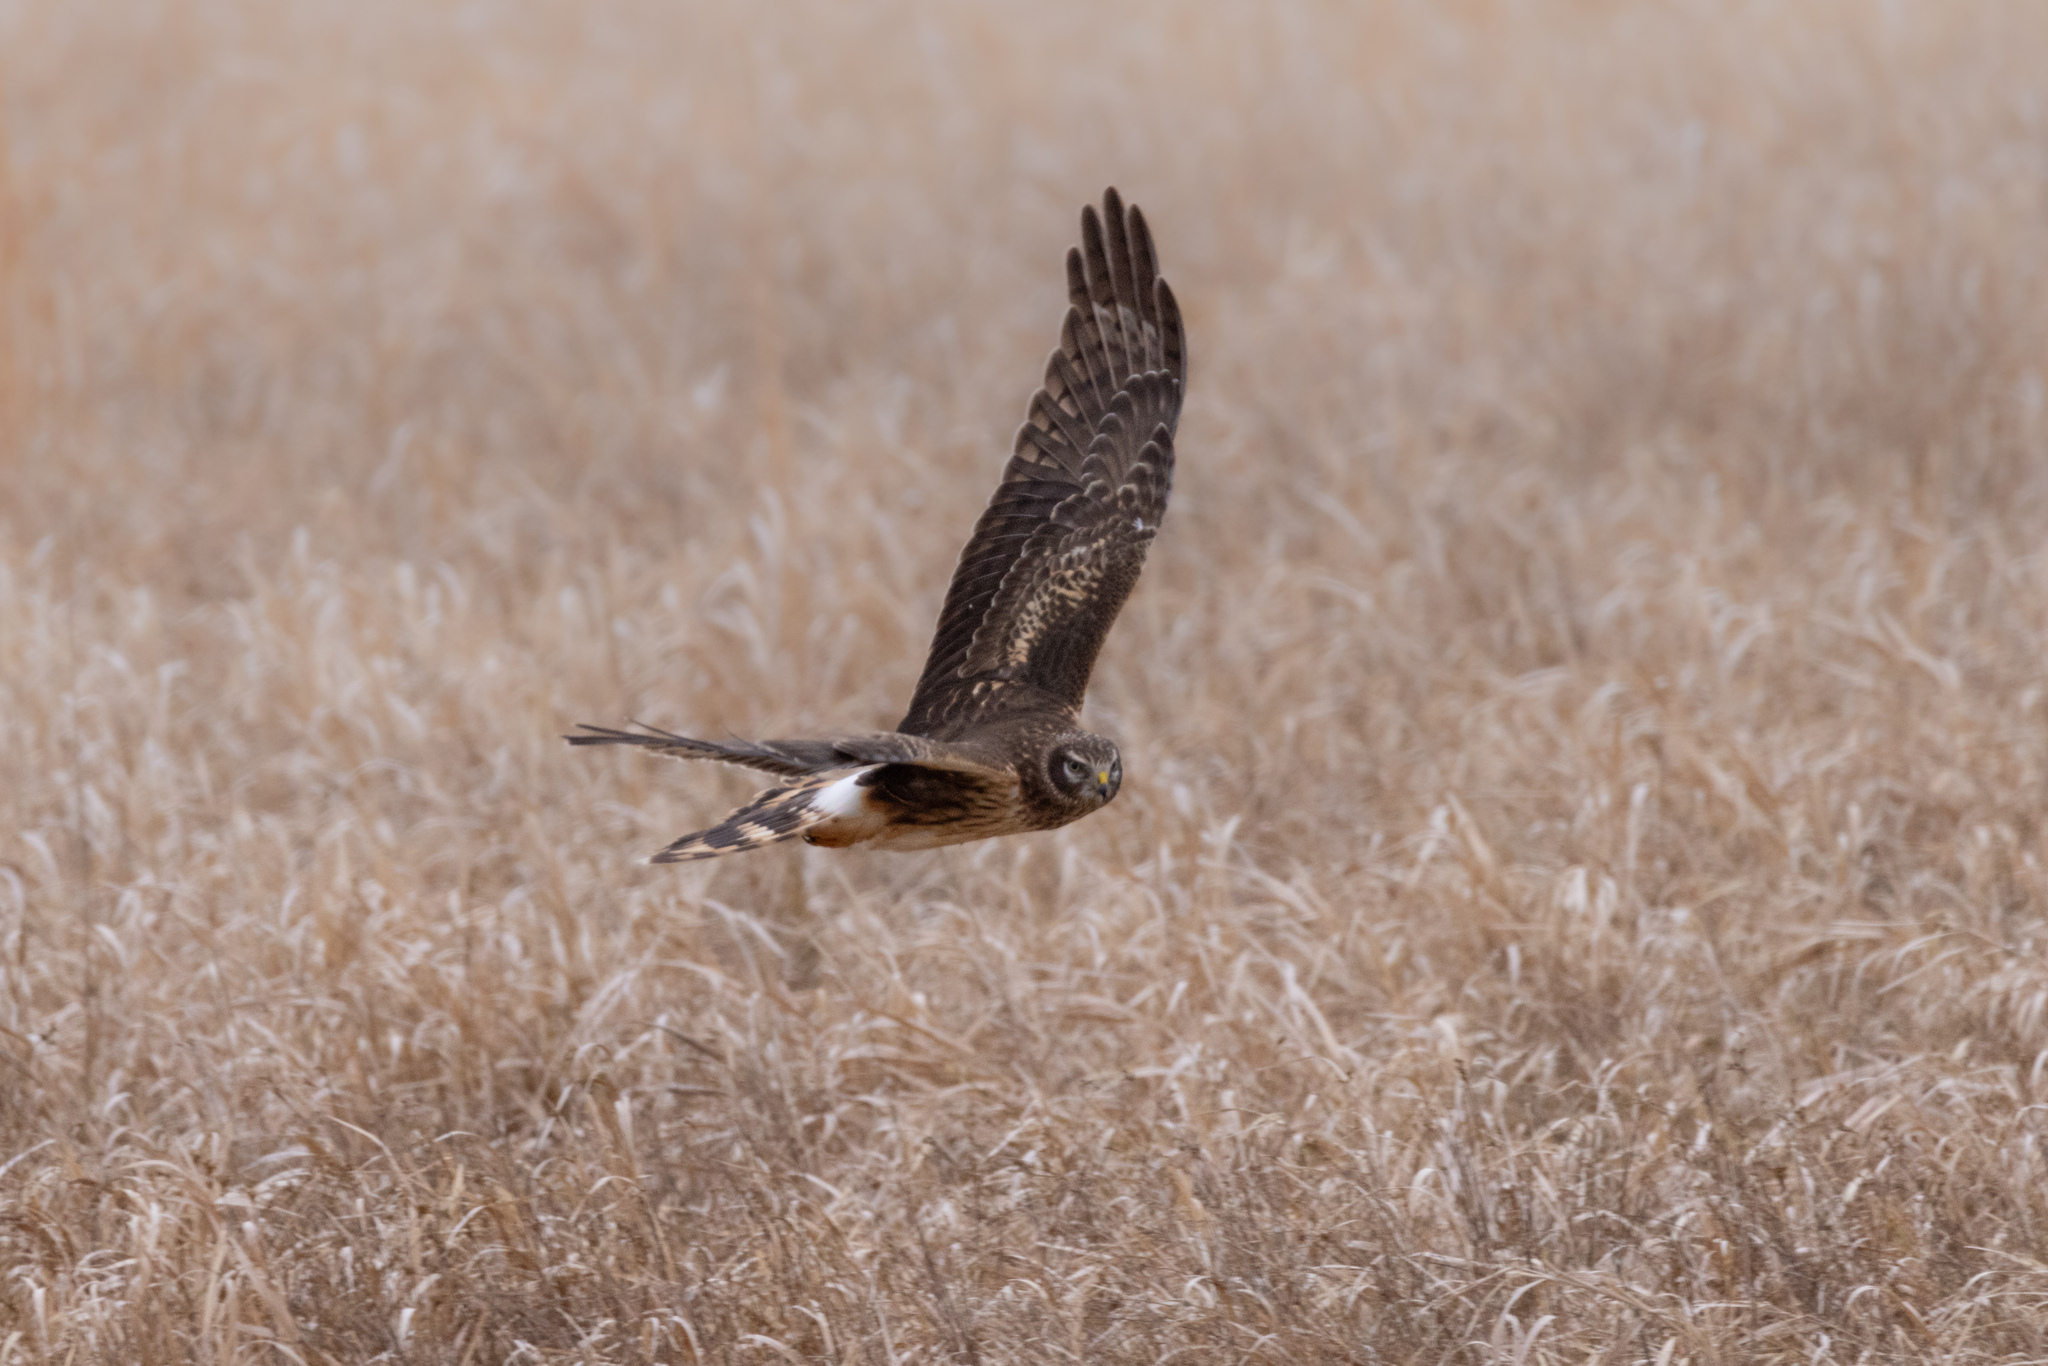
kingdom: Animalia
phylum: Chordata
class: Aves
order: Accipitriformes
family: Accipitridae
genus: Circus
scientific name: Circus cyaneus
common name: Hen harrier
